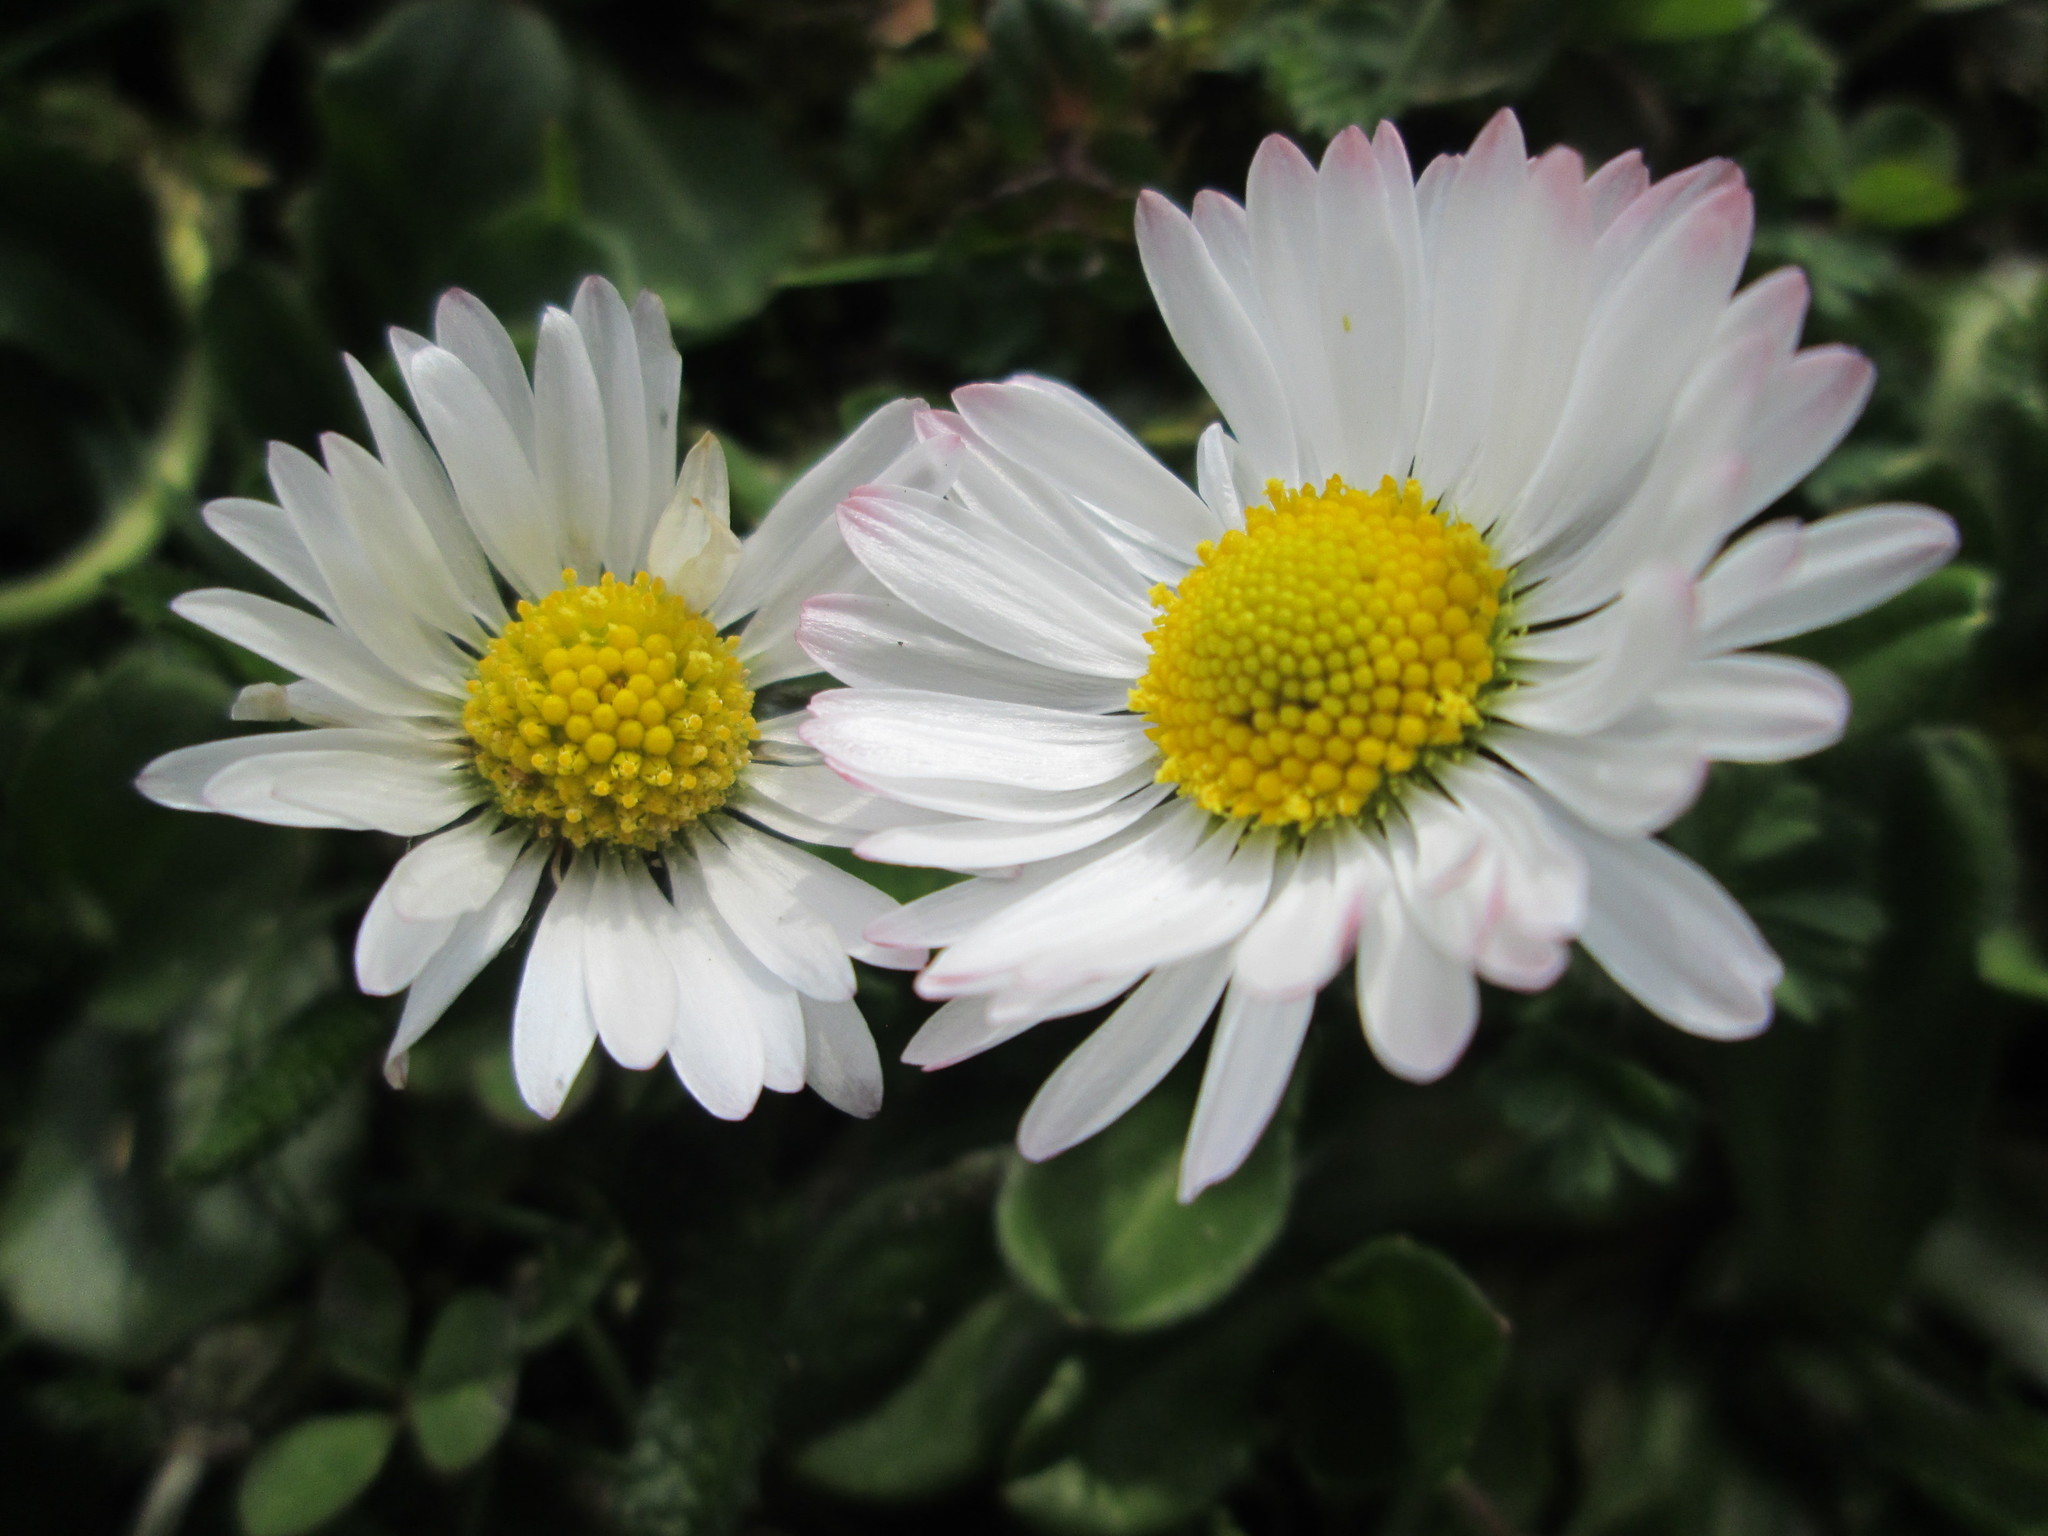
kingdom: Plantae
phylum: Tracheophyta
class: Magnoliopsida
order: Asterales
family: Asteraceae
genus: Bellis
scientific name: Bellis perennis
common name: Lawndaisy
